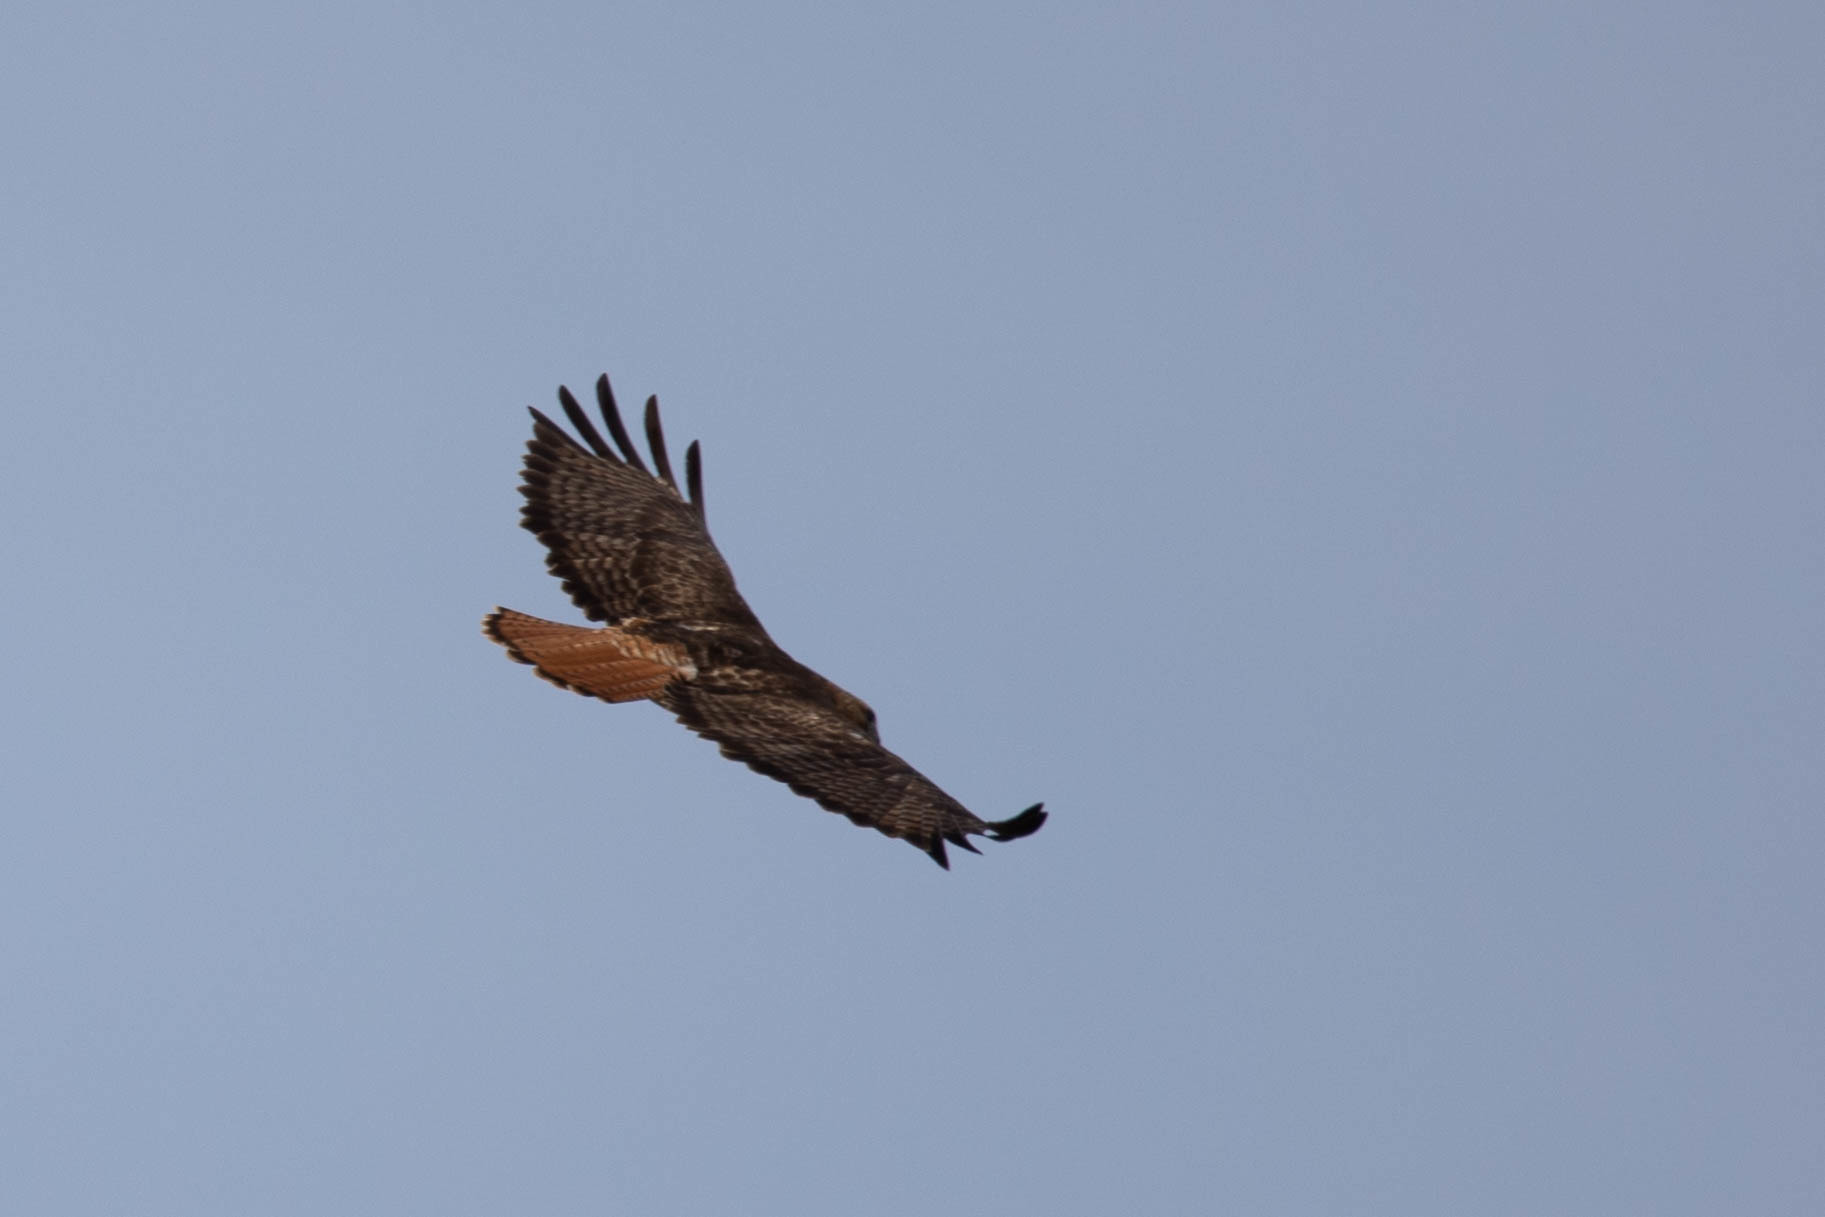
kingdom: Animalia
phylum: Chordata
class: Aves
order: Accipitriformes
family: Accipitridae
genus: Buteo
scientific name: Buteo jamaicensis
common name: Red-tailed hawk
